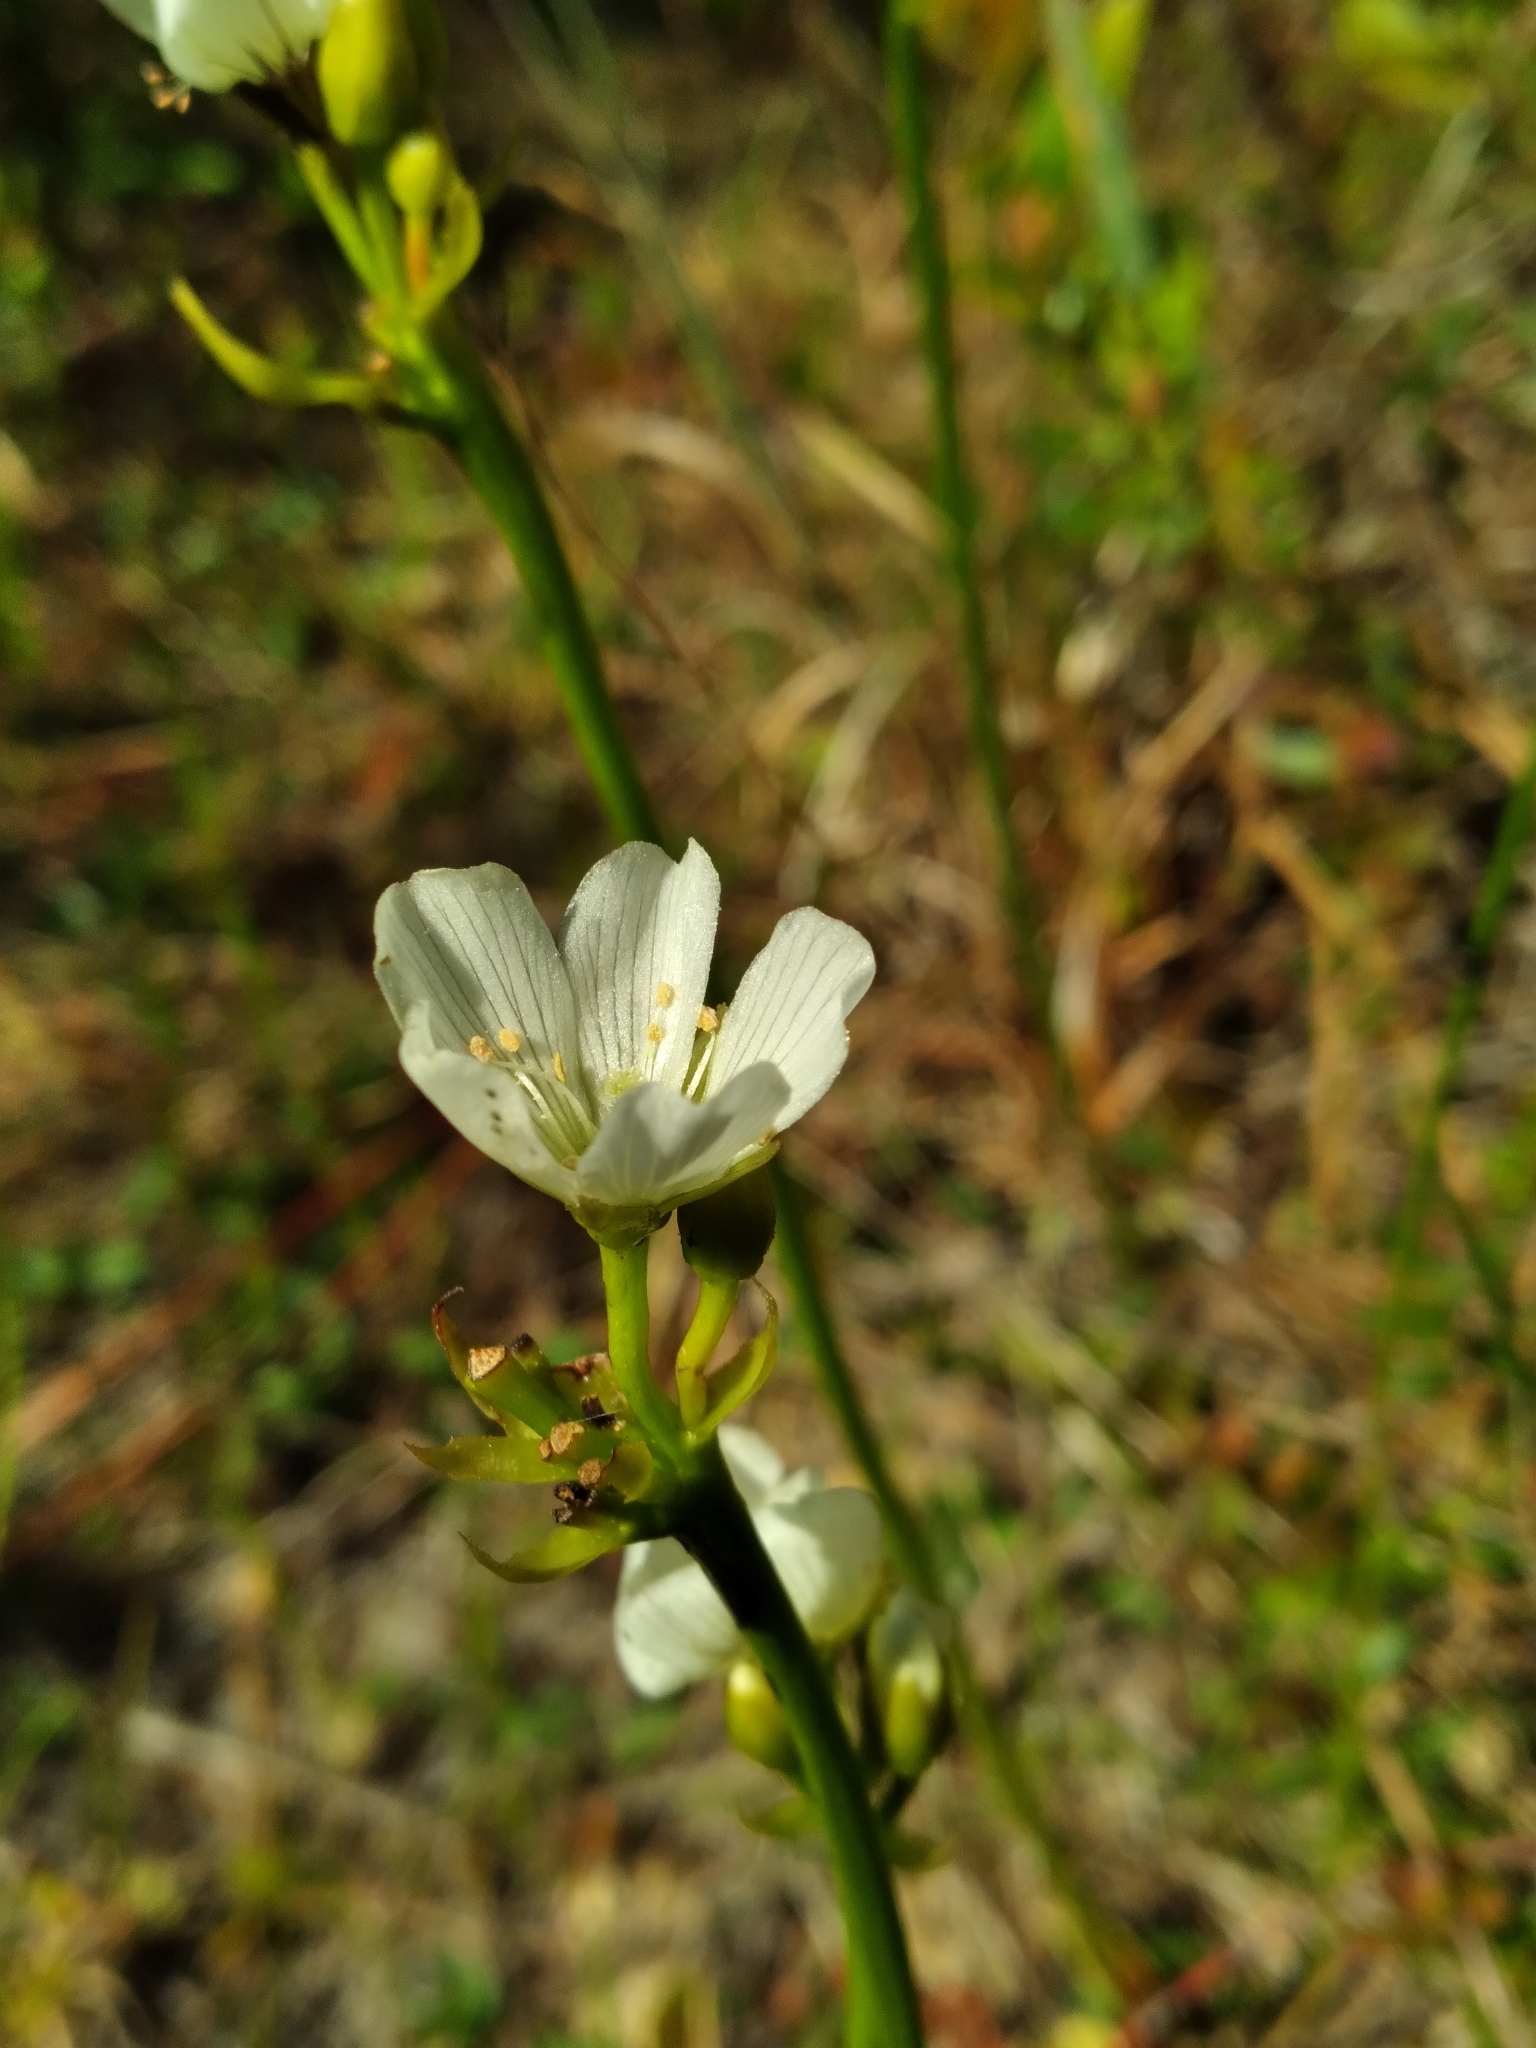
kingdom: Plantae
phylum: Tracheophyta
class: Magnoliopsida
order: Caryophyllales
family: Droseraceae
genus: Dionaea
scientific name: Dionaea muscipula
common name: Venus flytrap
